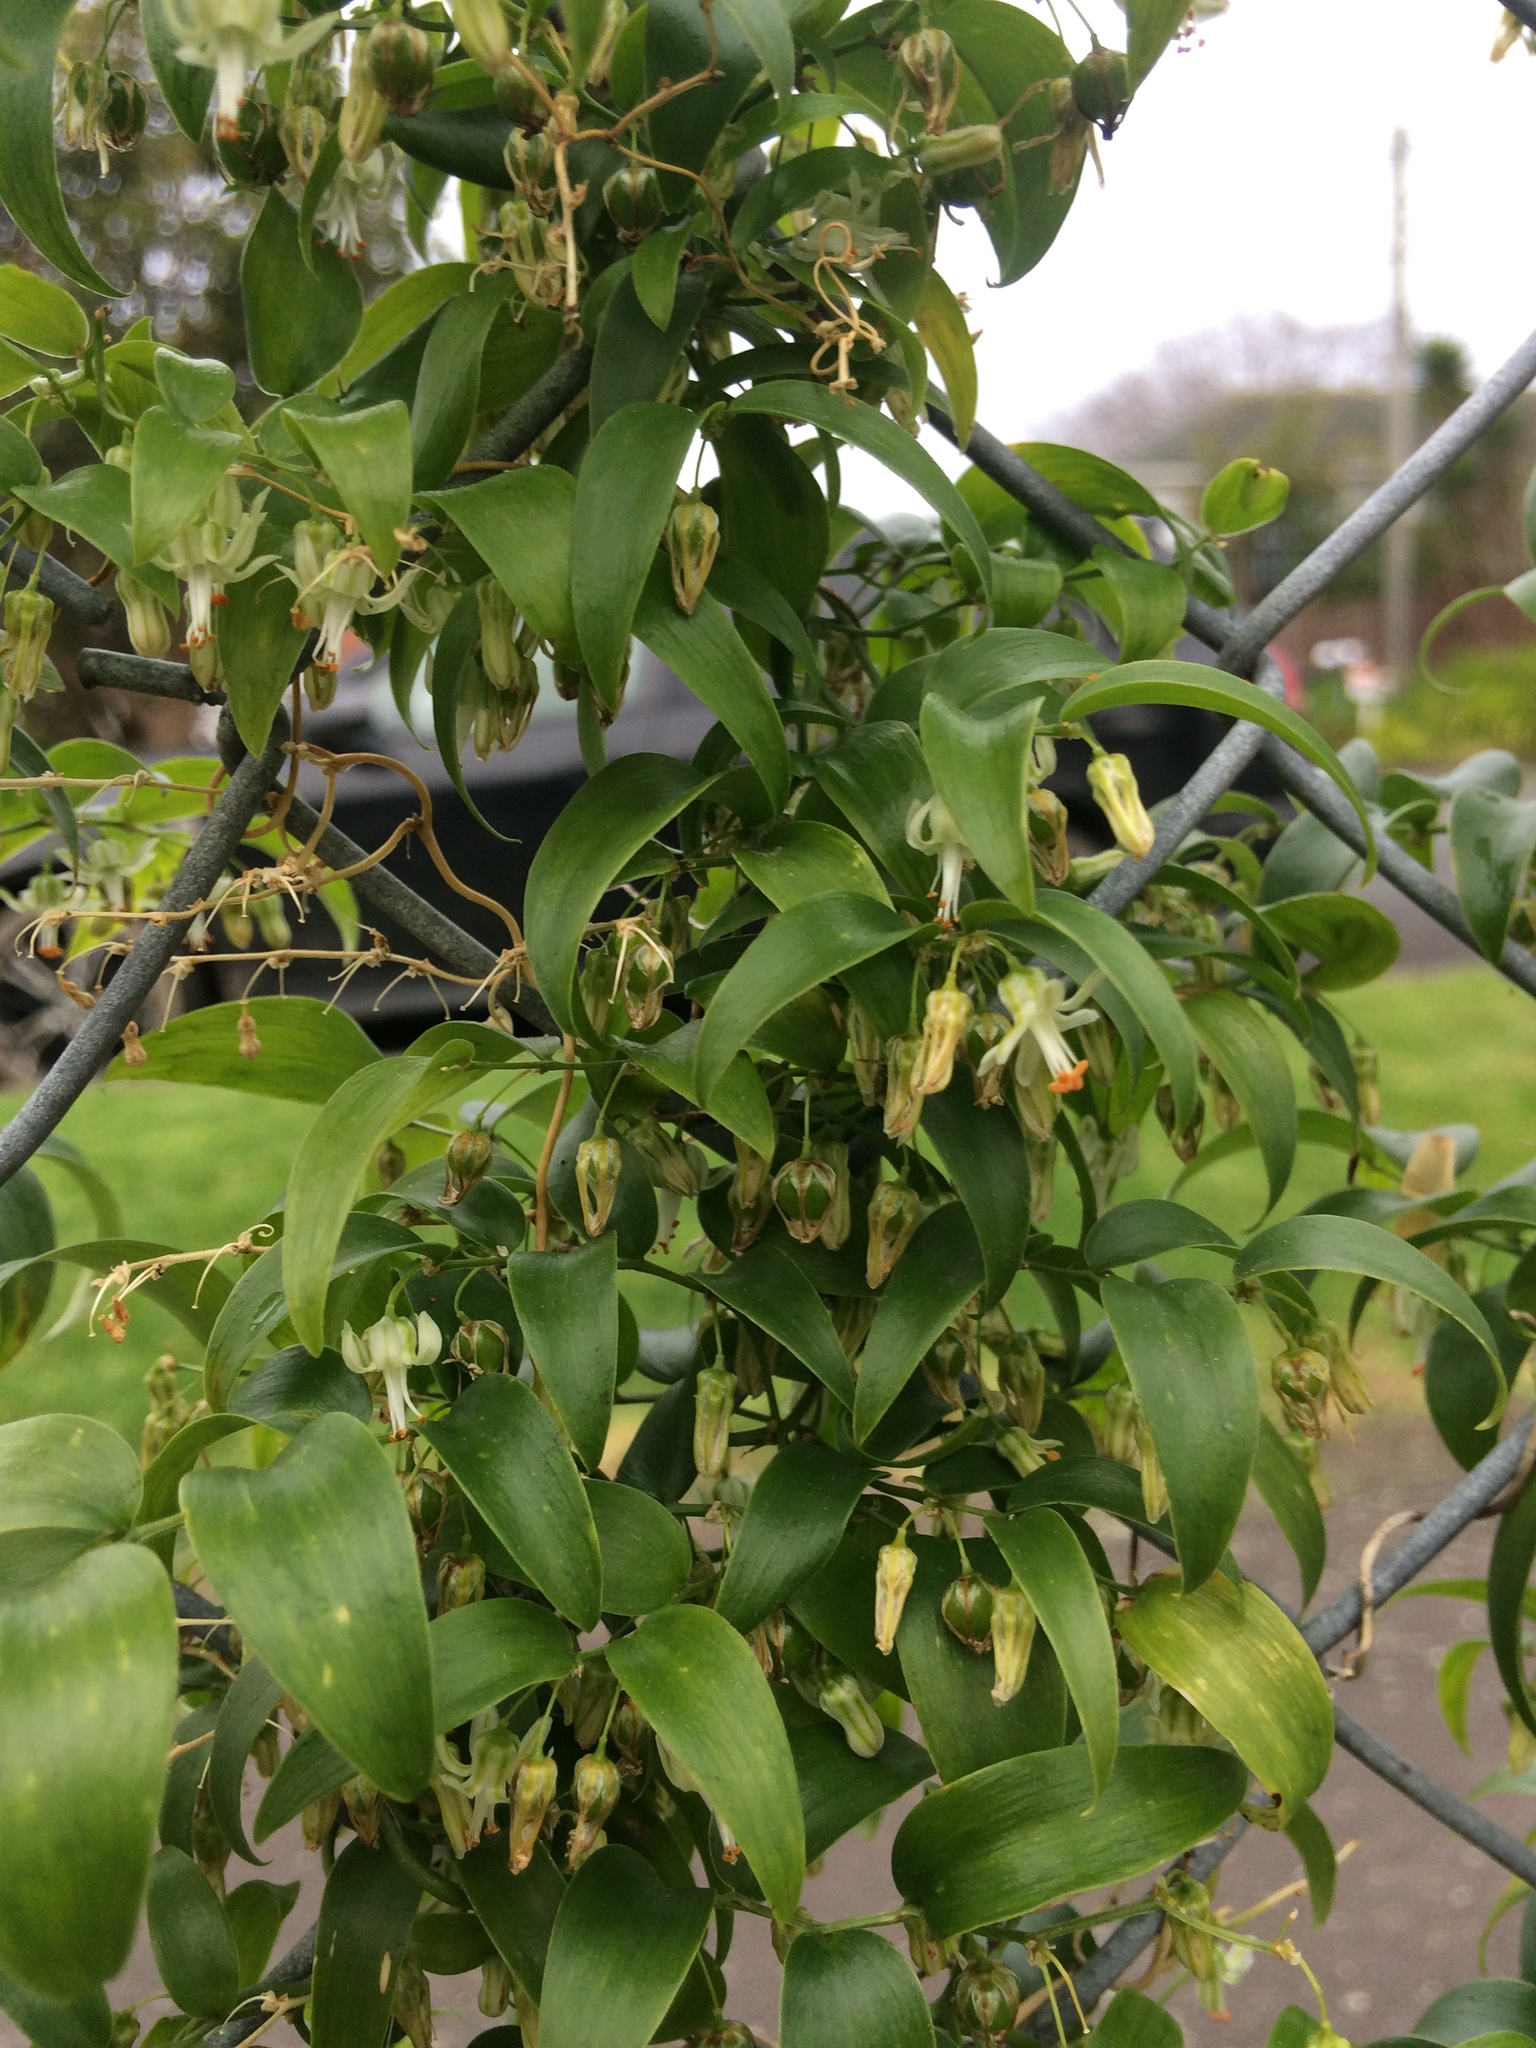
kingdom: Plantae
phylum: Tracheophyta
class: Liliopsida
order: Asparagales
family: Asparagaceae
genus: Asparagus
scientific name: Asparagus asparagoides
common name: African asparagus fern
